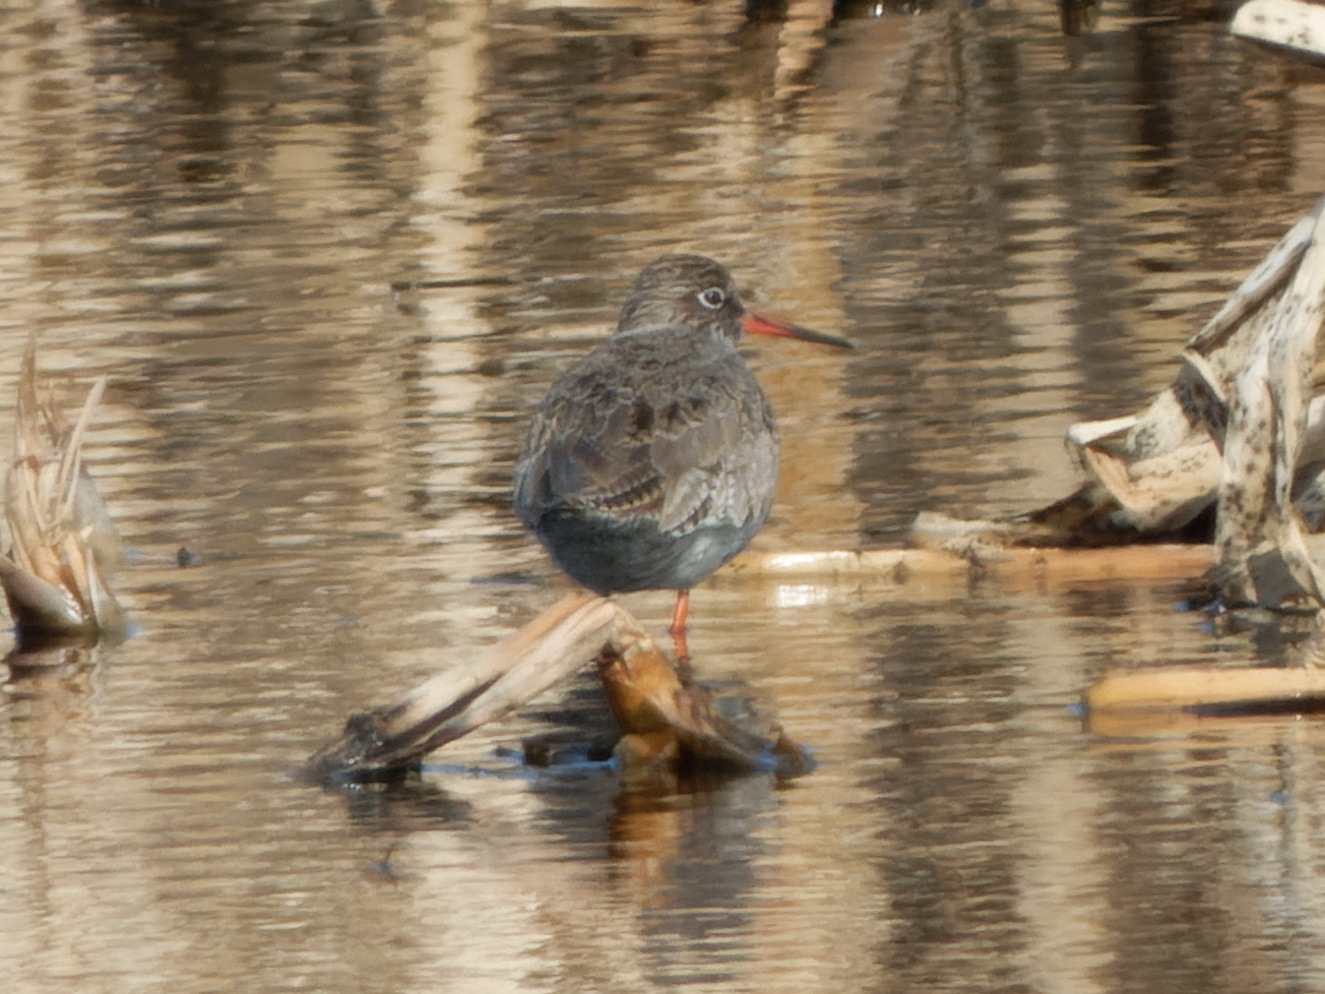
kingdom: Animalia
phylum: Chordata
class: Aves
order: Charadriiformes
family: Scolopacidae
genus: Tringa
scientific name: Tringa totanus
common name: Common redshank
